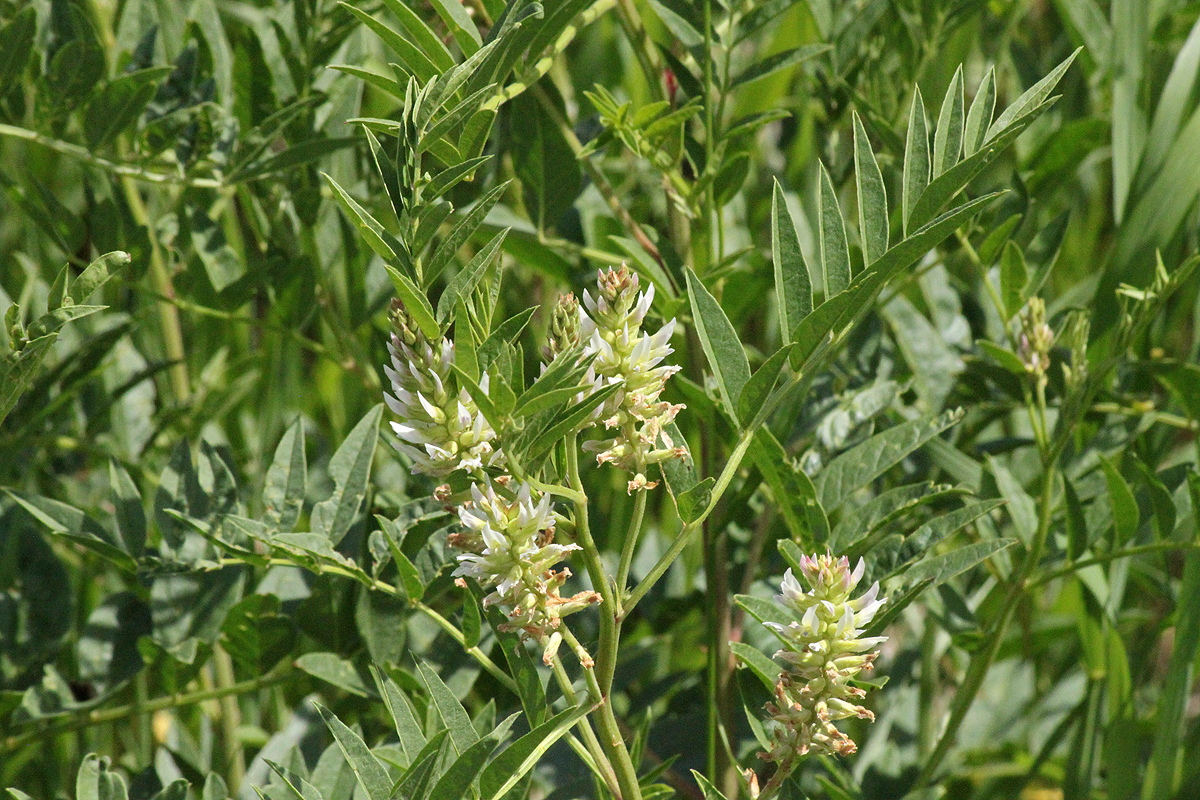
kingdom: Plantae
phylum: Tracheophyta
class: Magnoliopsida
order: Fabales
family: Fabaceae
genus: Glycyrrhiza
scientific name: Glycyrrhiza lepidota
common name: American liquorice
